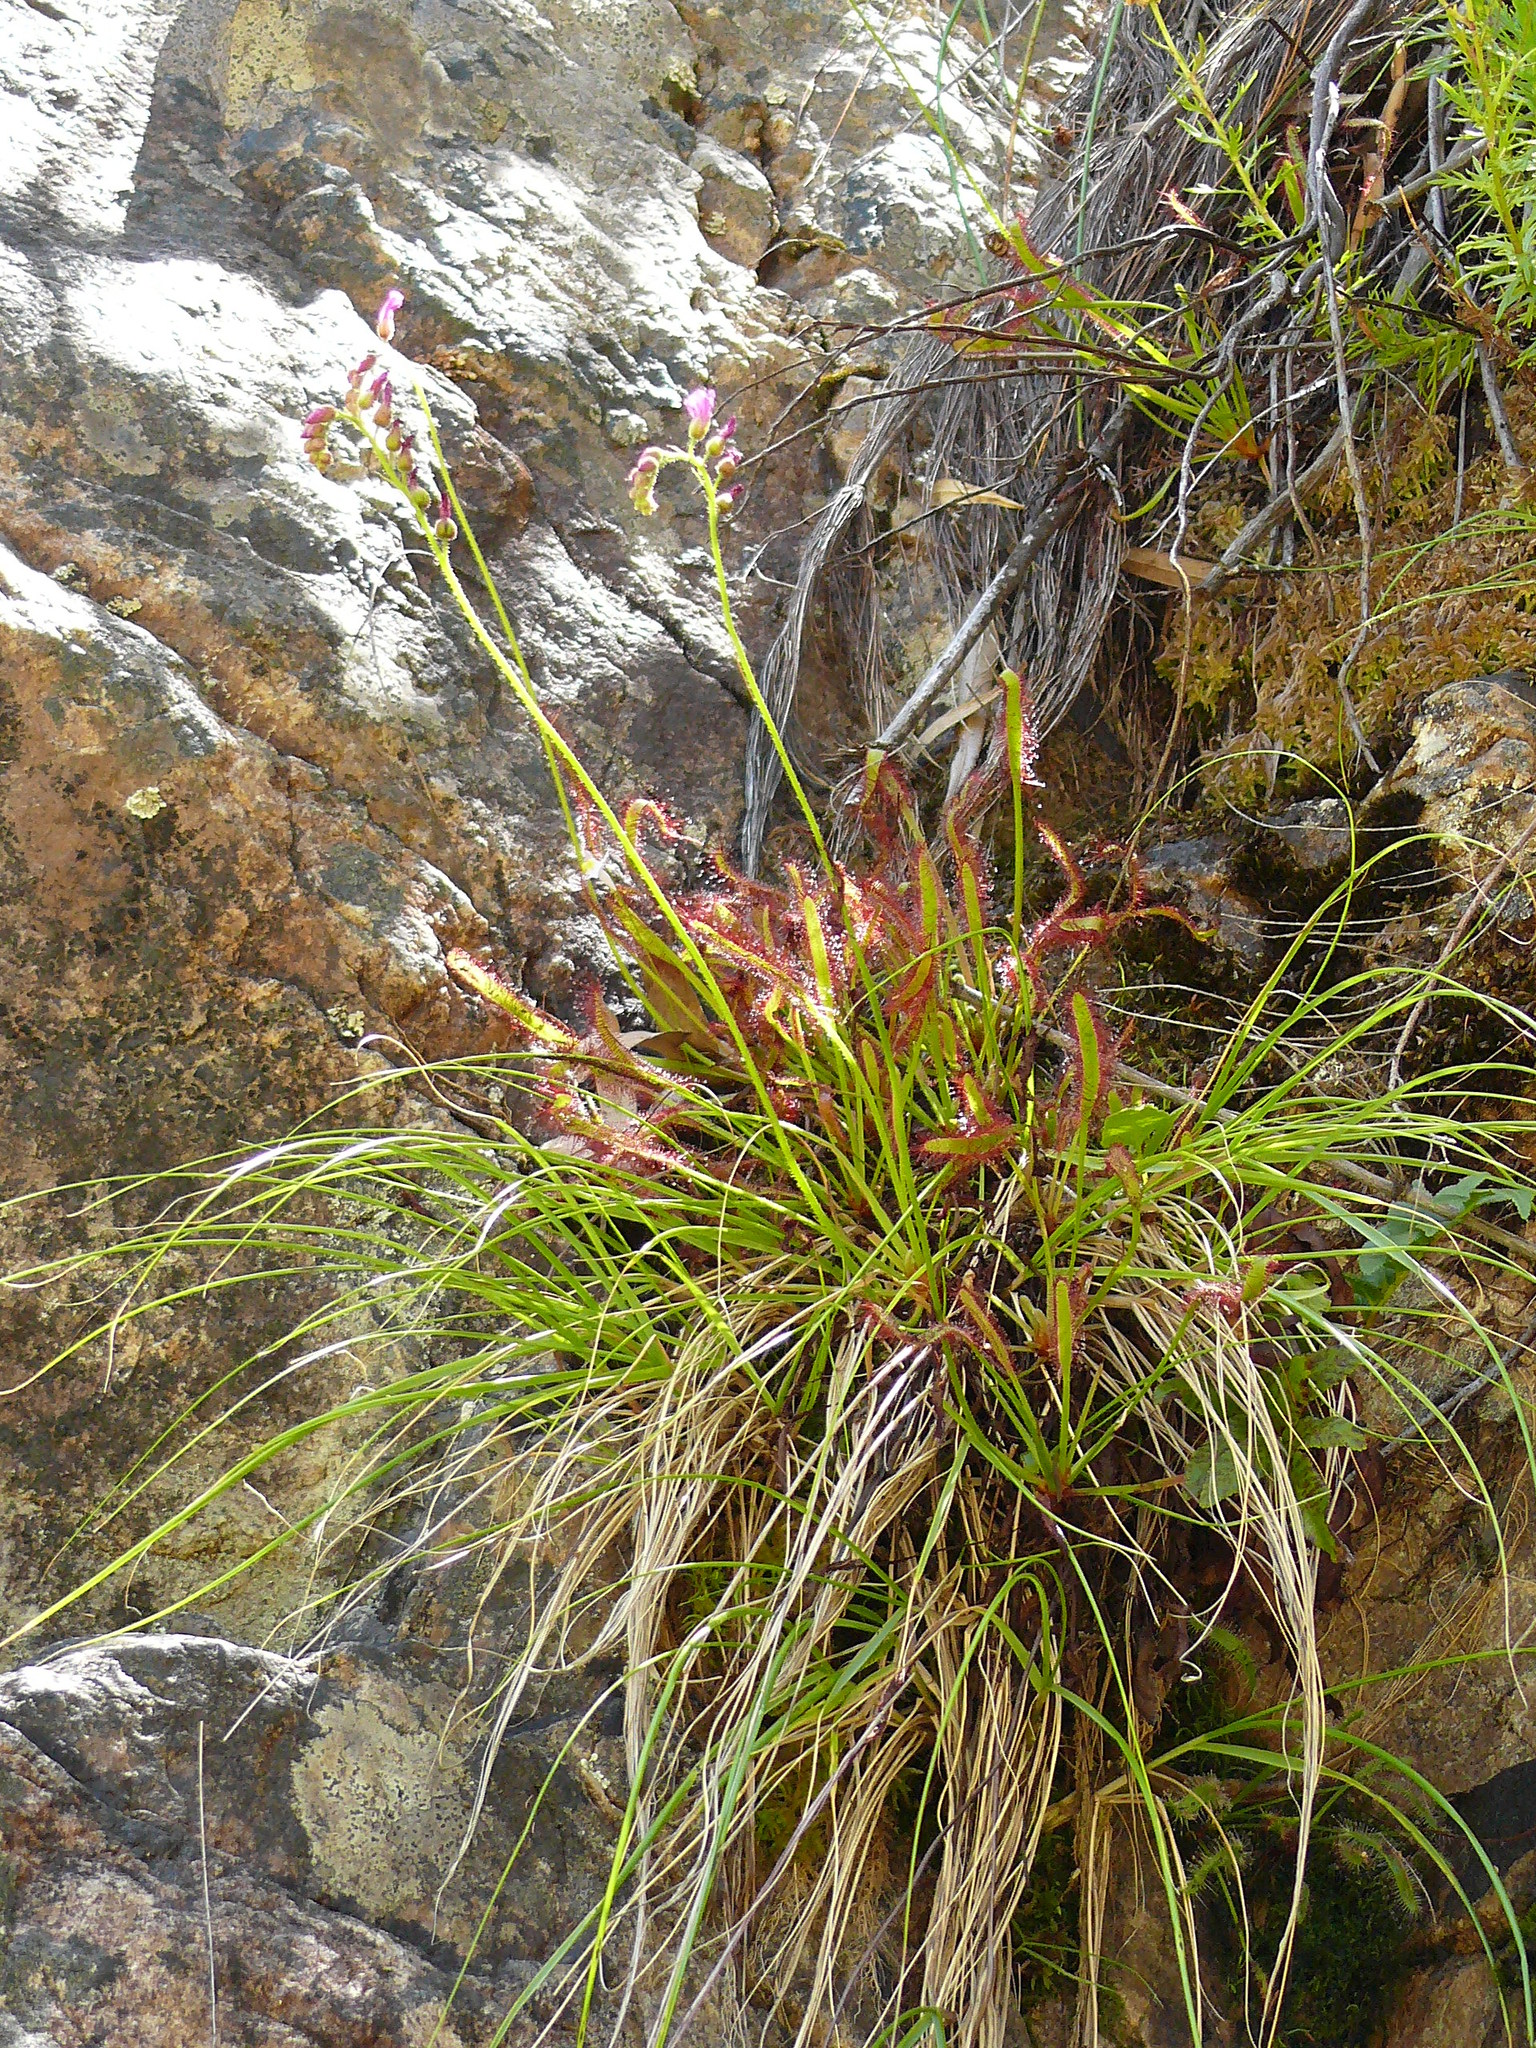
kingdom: Plantae
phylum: Tracheophyta
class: Magnoliopsida
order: Caryophyllales
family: Droseraceae
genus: Drosera
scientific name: Drosera capensis
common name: Cape sundew
